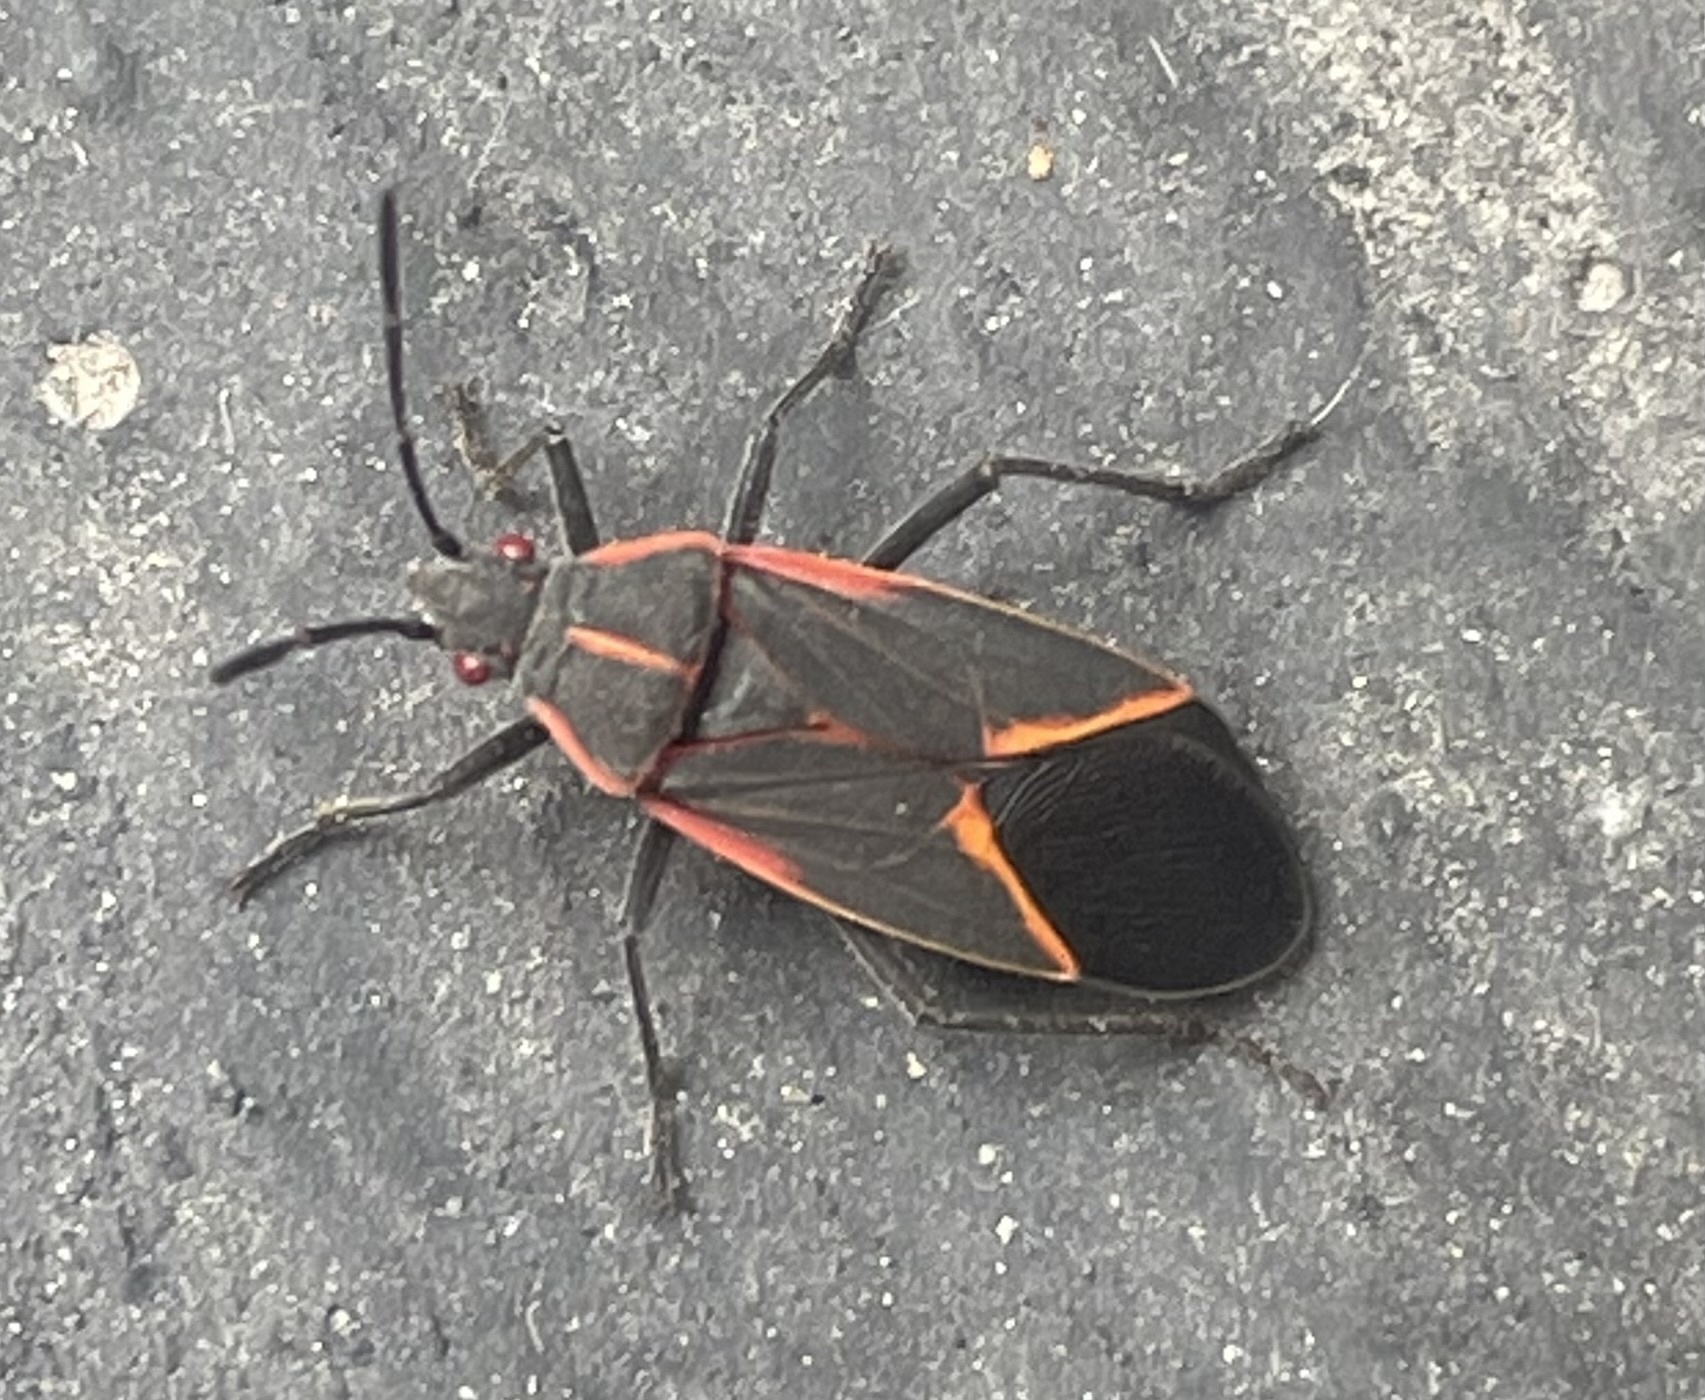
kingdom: Animalia
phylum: Arthropoda
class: Insecta
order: Hemiptera
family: Rhopalidae
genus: Boisea
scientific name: Boisea trivittata
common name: Boxelder bug
